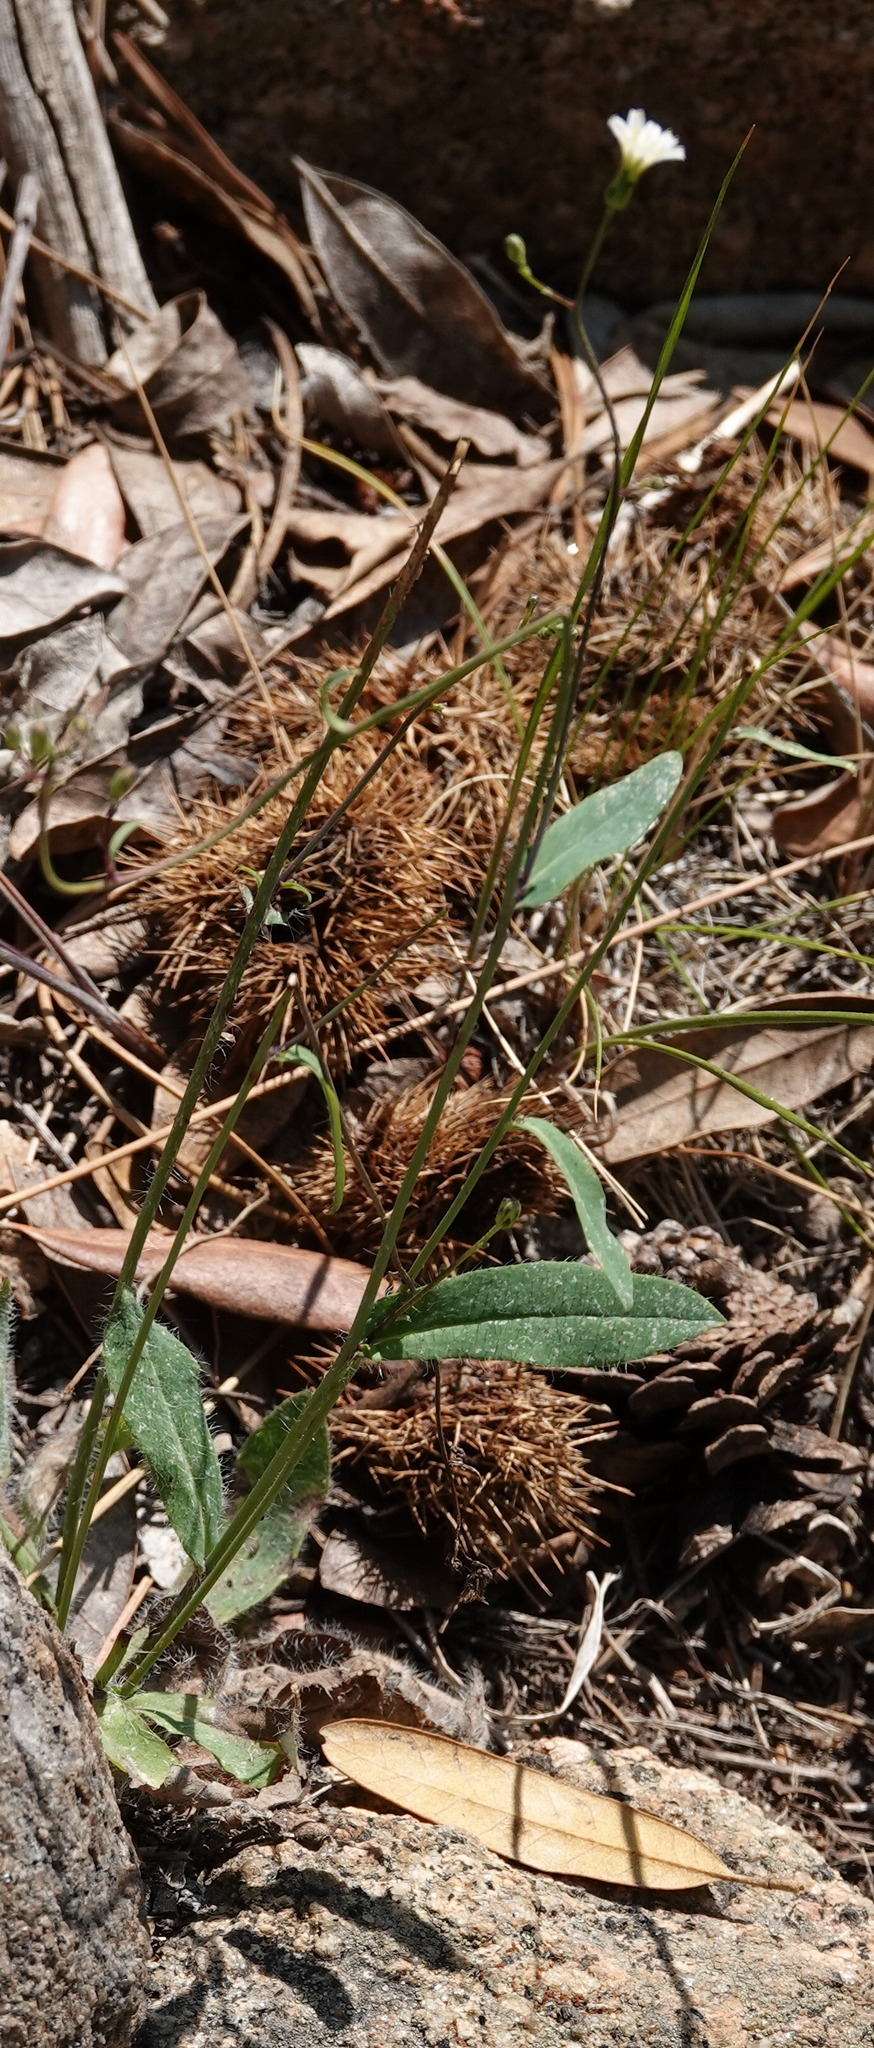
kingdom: Plantae
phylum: Tracheophyta
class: Magnoliopsida
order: Asterales
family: Asteraceae
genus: Hieracium
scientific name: Hieracium albiflorum
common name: White hawkweed
